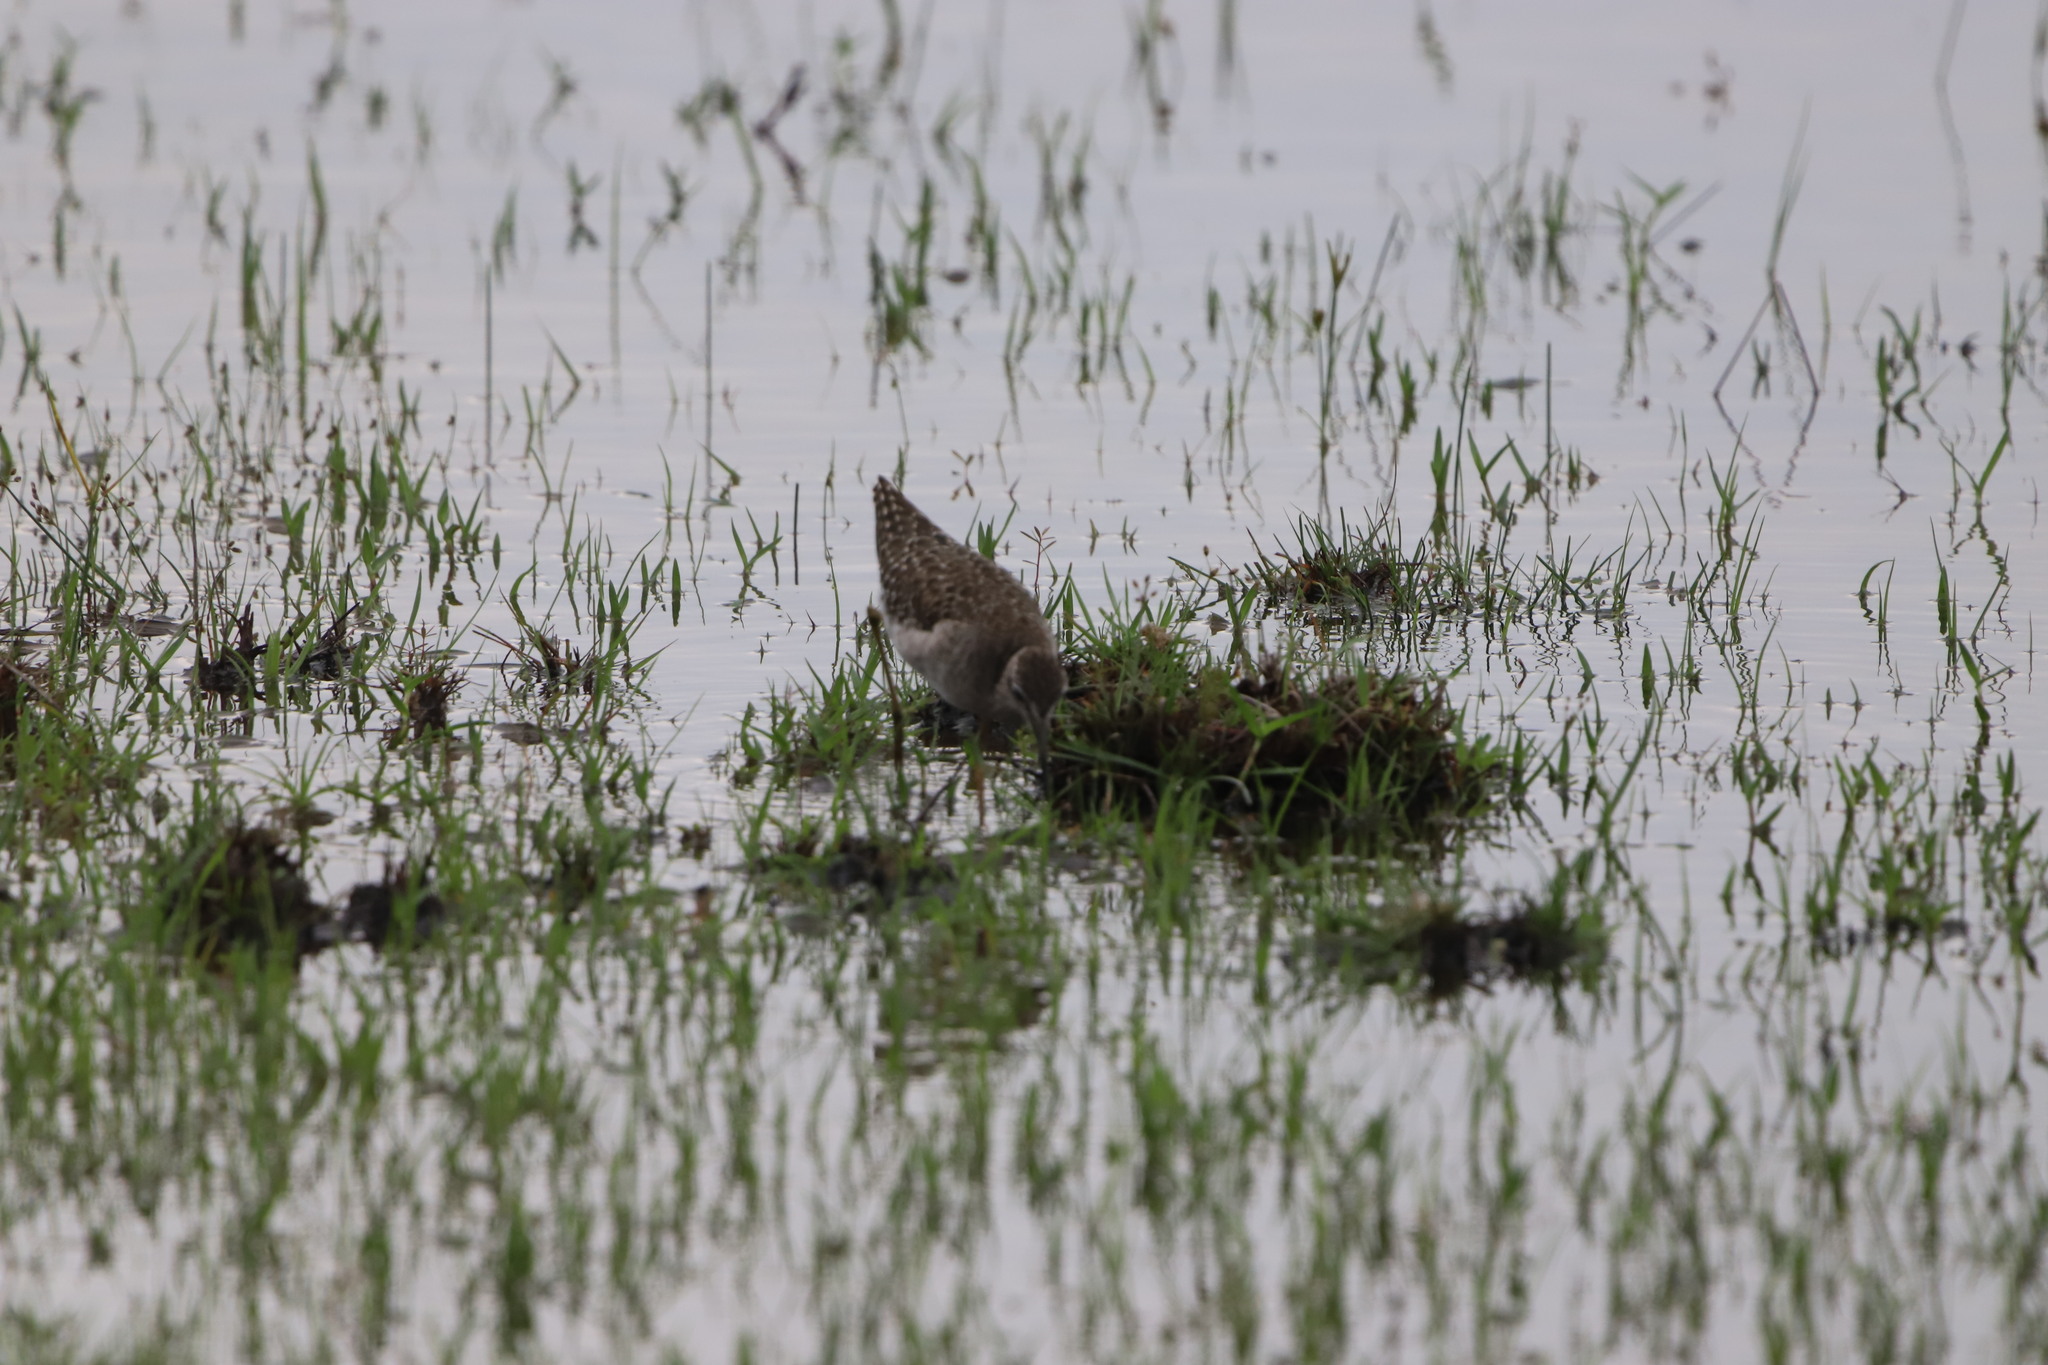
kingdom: Animalia
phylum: Chordata
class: Aves
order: Charadriiformes
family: Scolopacidae
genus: Tringa
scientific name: Tringa glareola
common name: Wood sandpiper
